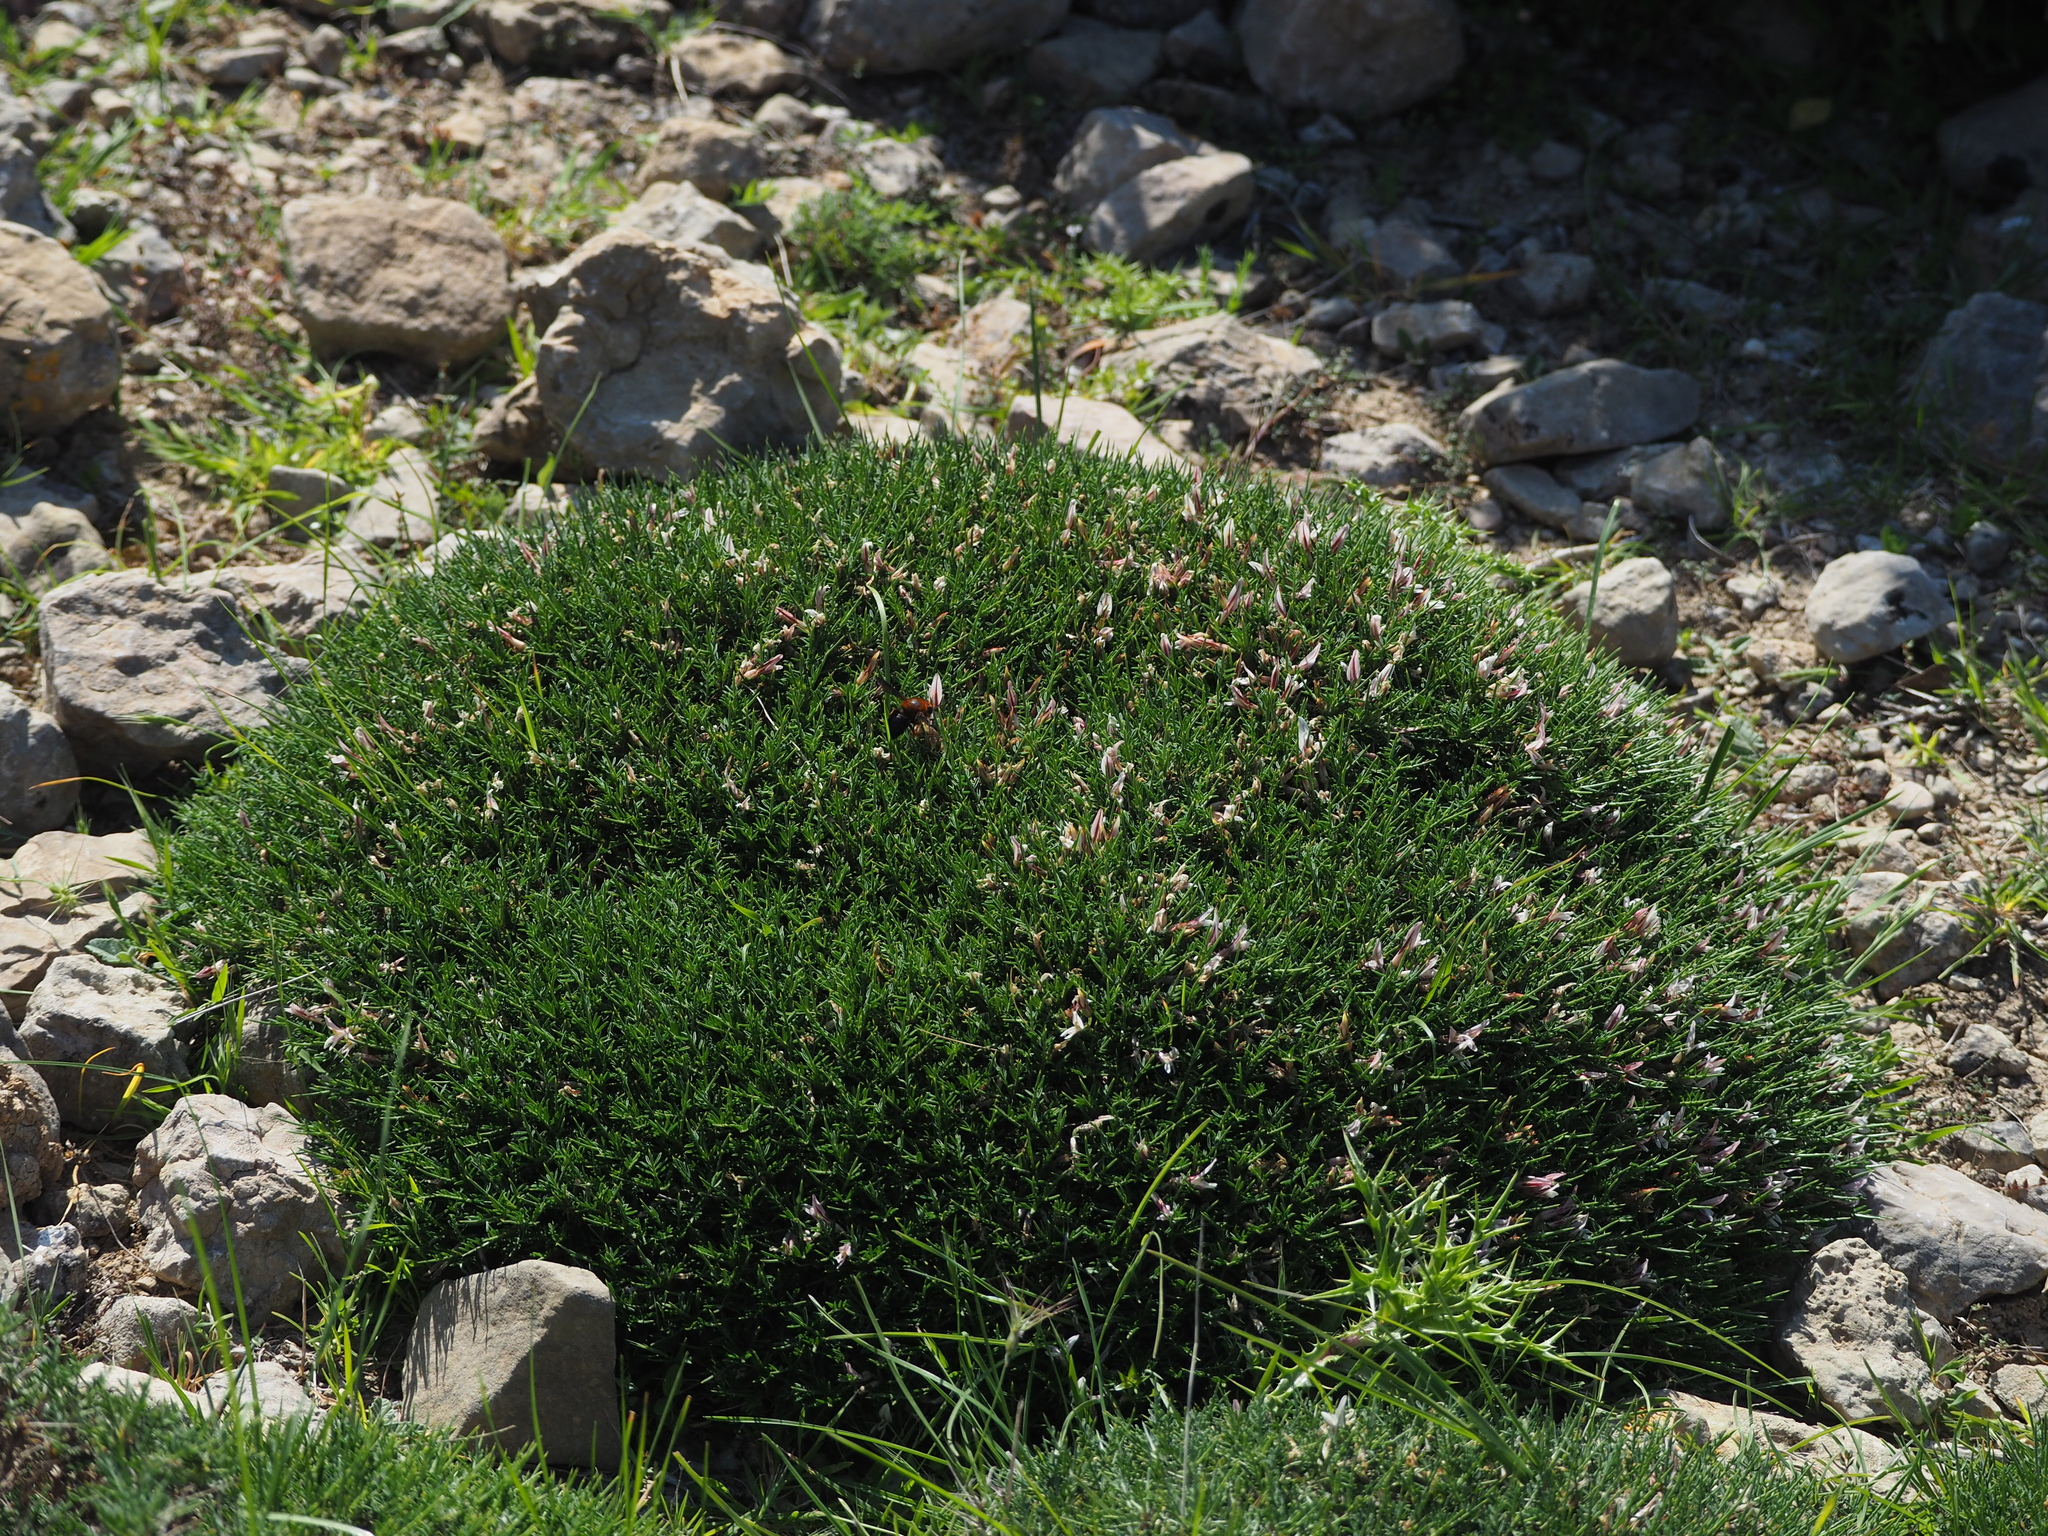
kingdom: Plantae
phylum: Tracheophyta
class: Magnoliopsida
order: Fabales
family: Fabaceae
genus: Astragalus
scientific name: Astragalus balearicus
